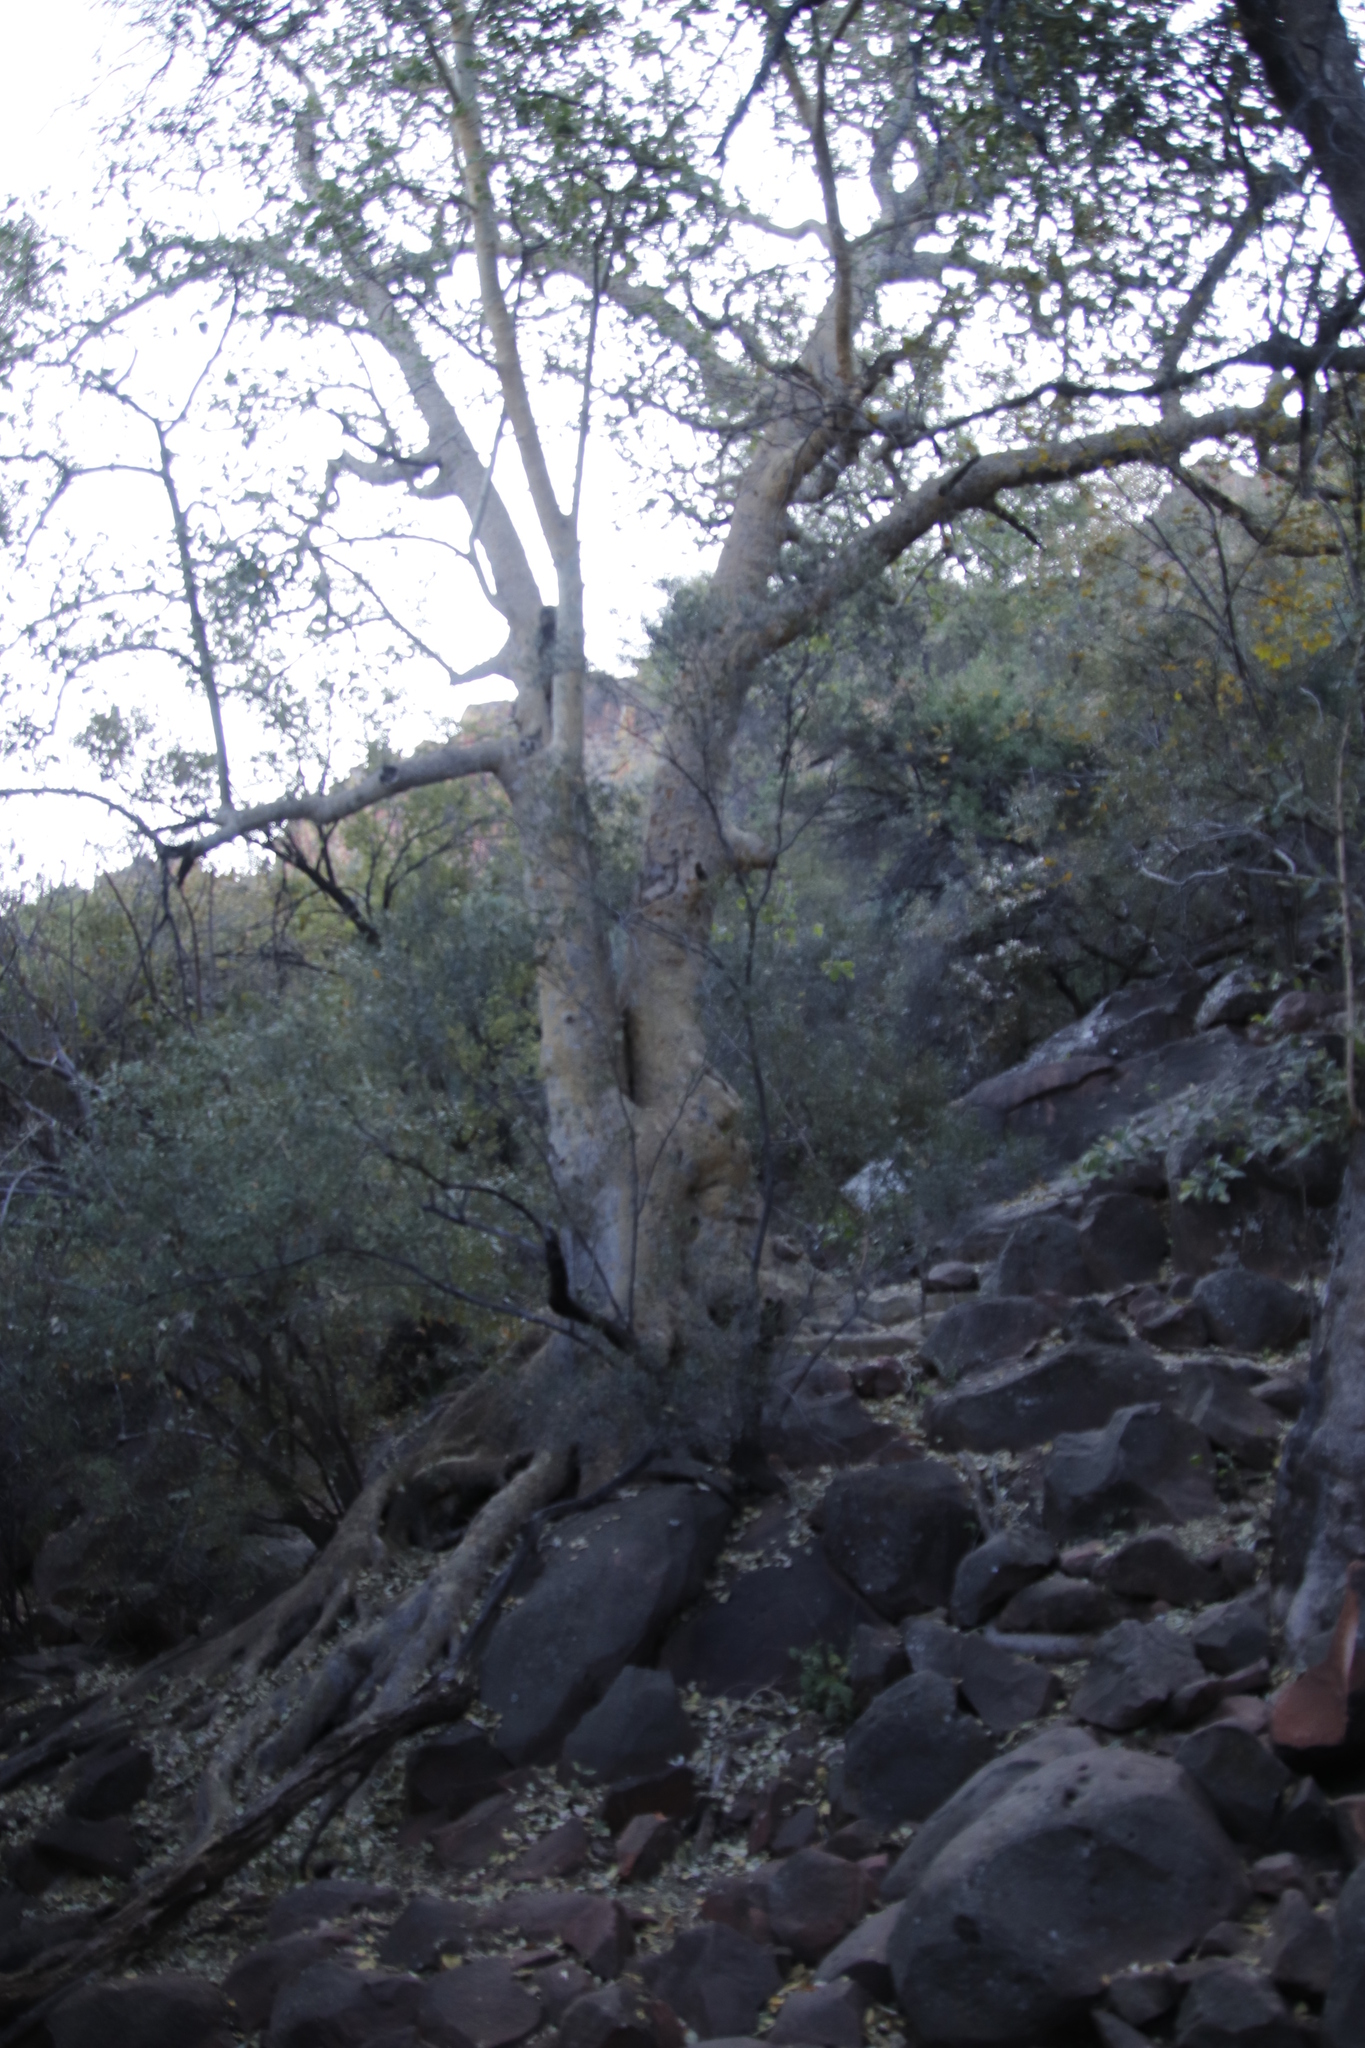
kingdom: Plantae
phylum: Tracheophyta
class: Magnoliopsida
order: Rosales
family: Moraceae
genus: Ficus
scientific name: Ficus sycomorus
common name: Sycomore
